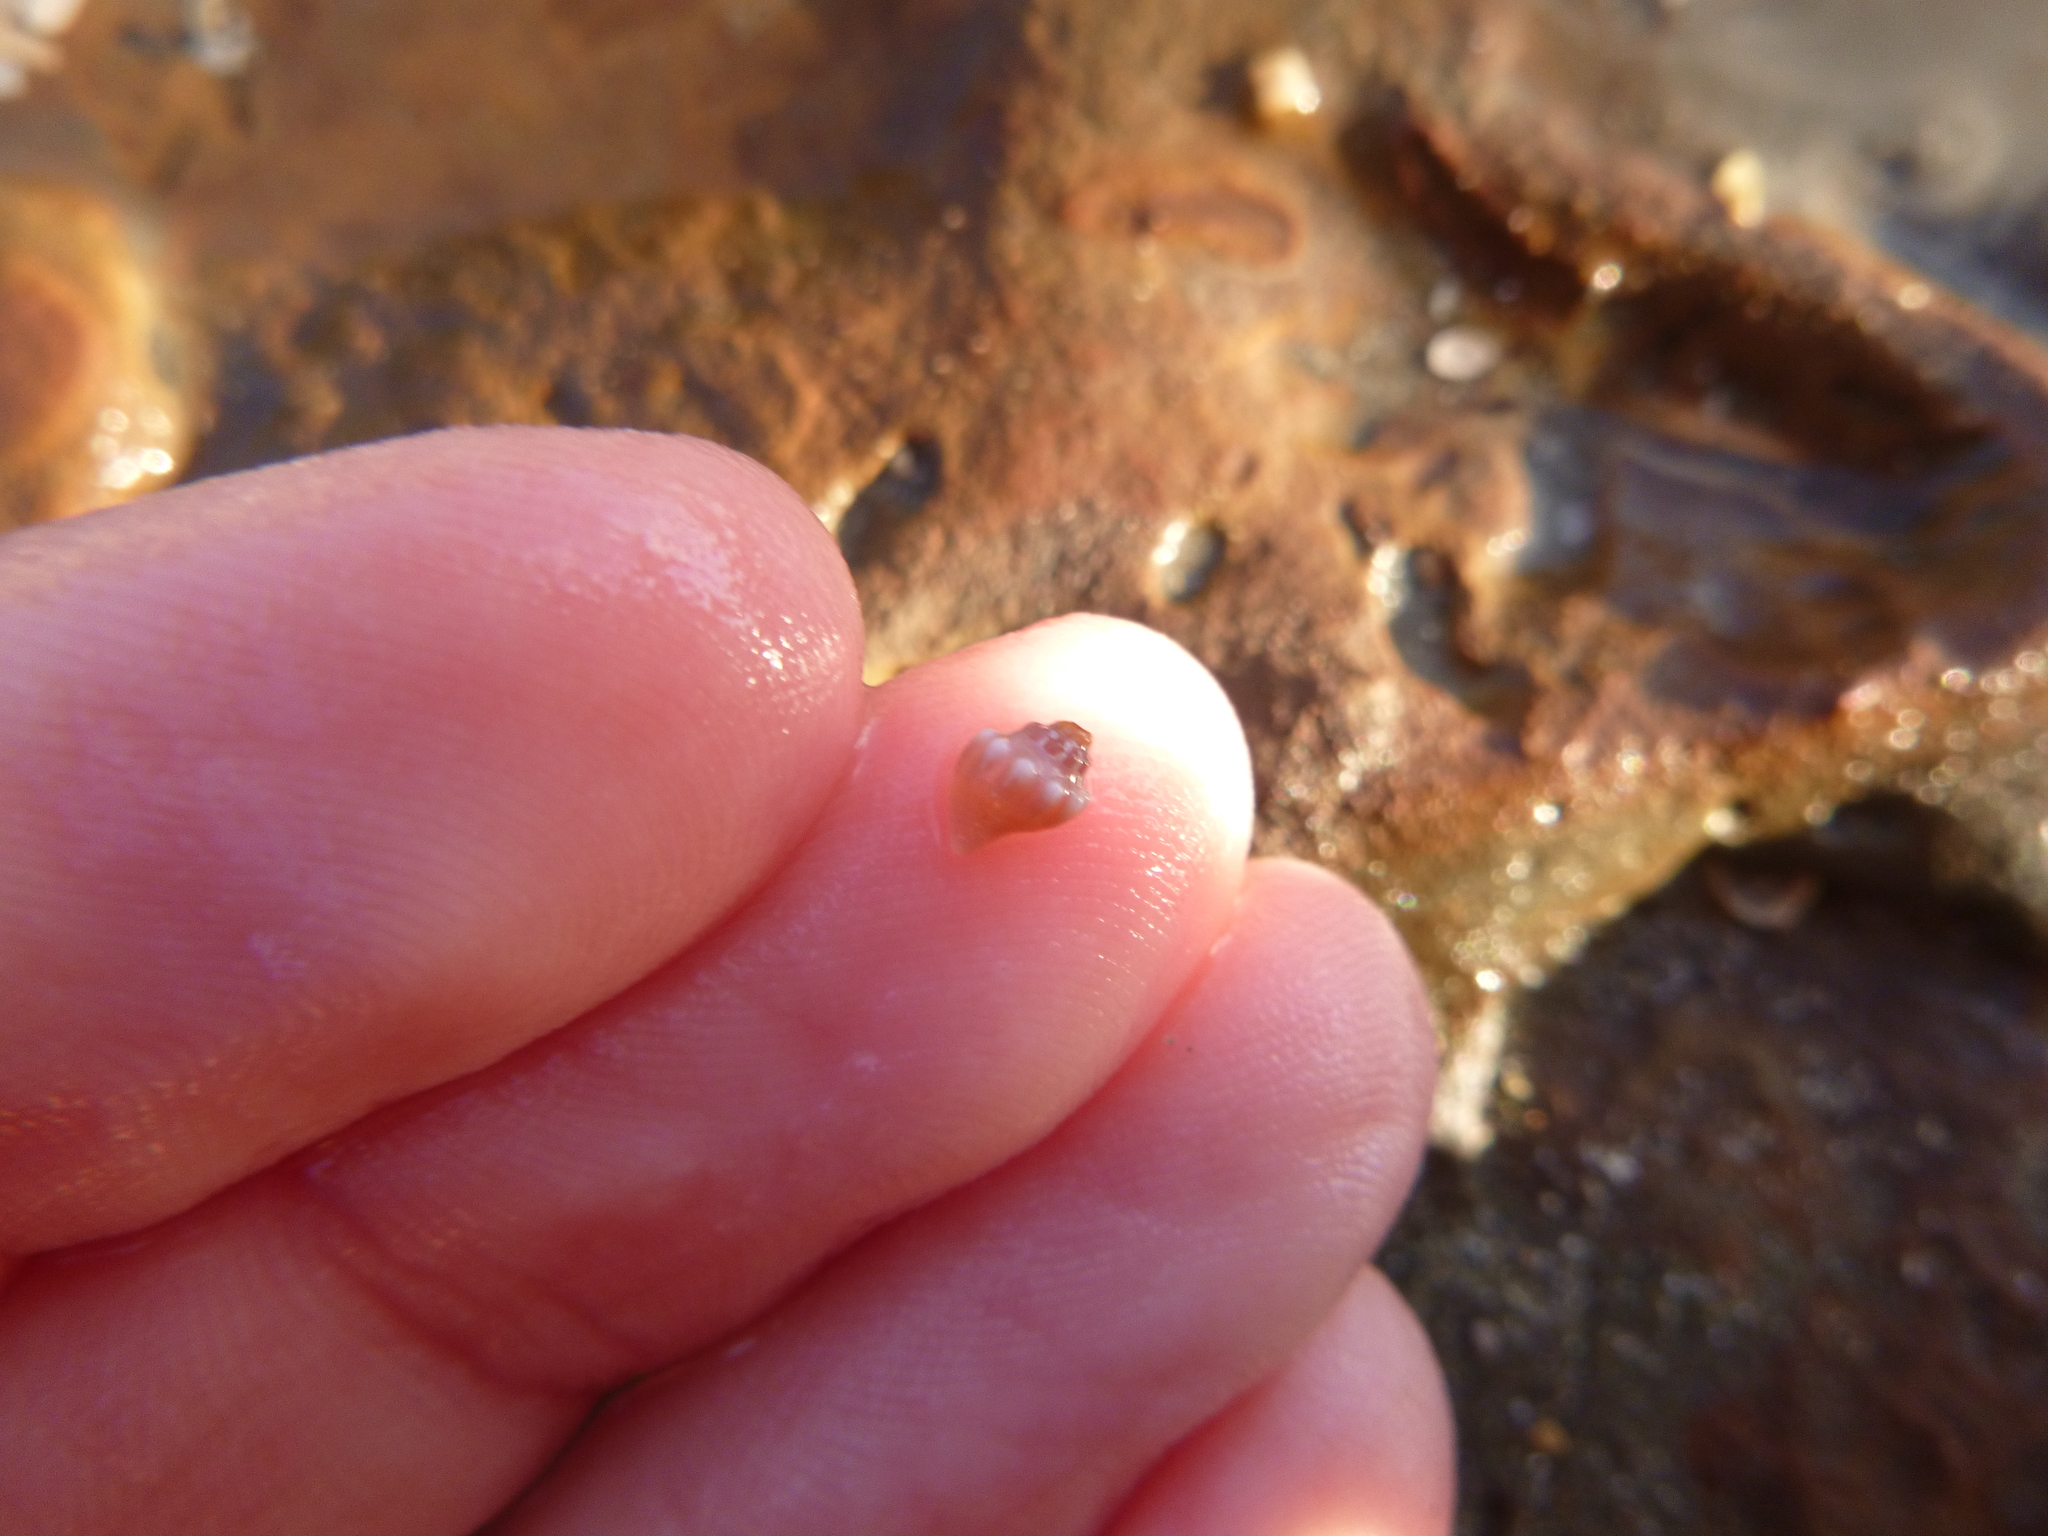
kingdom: Animalia
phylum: Mollusca
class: Gastropoda
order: Neogastropoda
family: Cominellidae
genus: Cominella
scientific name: Cominella glandiformis
